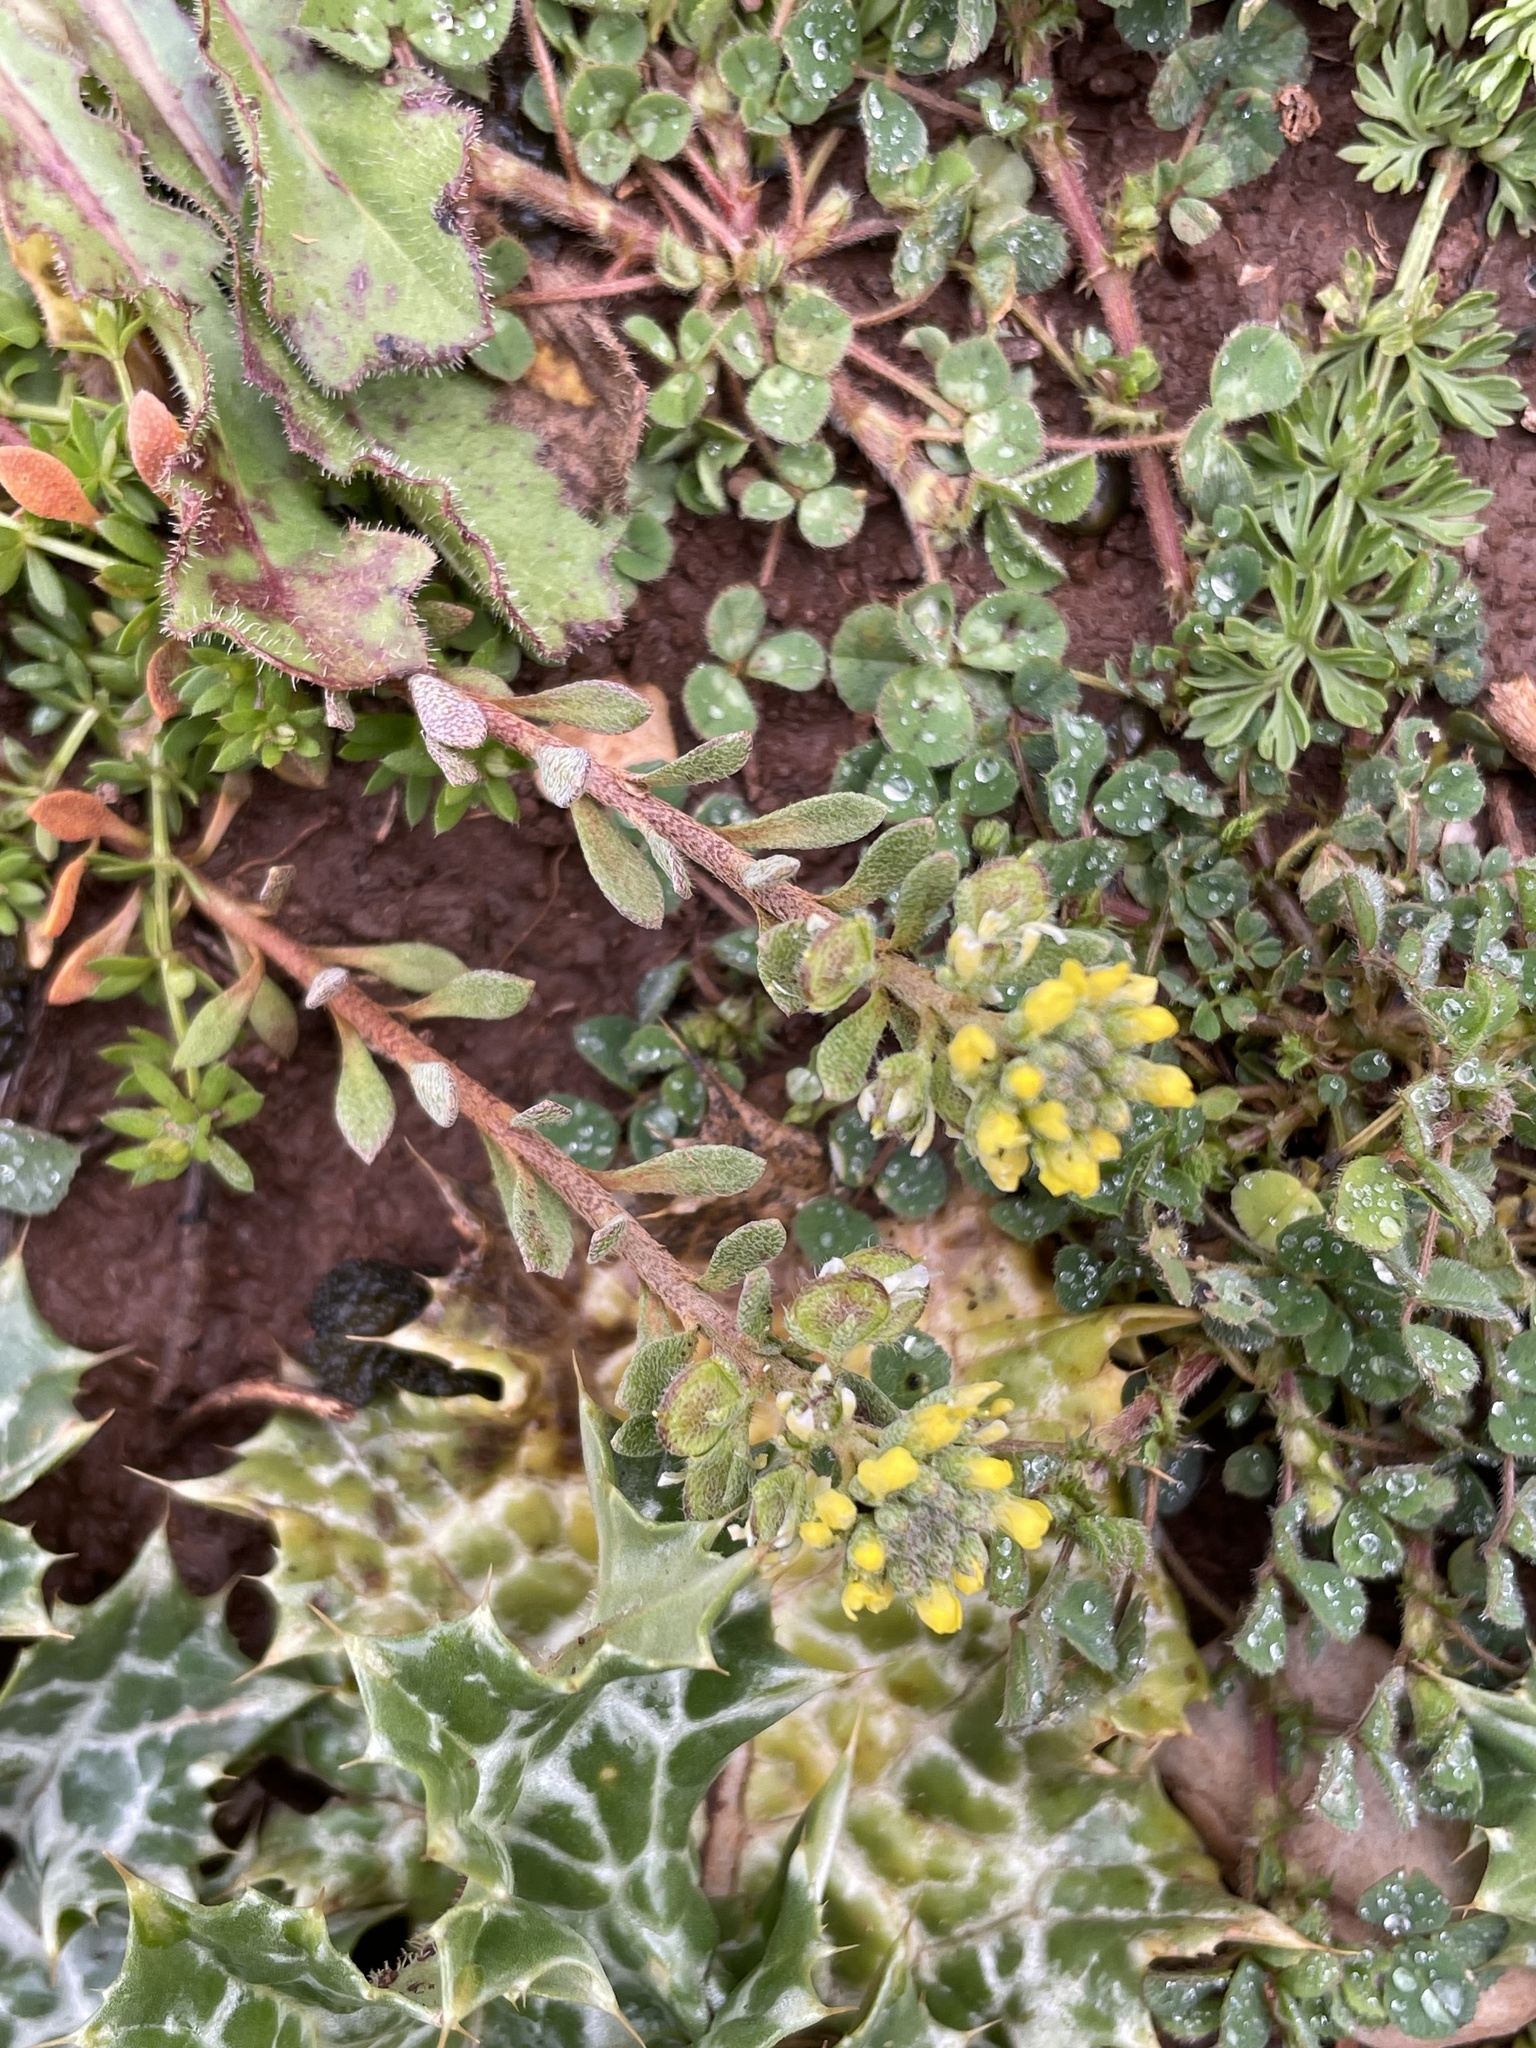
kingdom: Plantae
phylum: Tracheophyta
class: Magnoliopsida
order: Brassicales
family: Brassicaceae
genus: Alyssum
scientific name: Alyssum granatense
